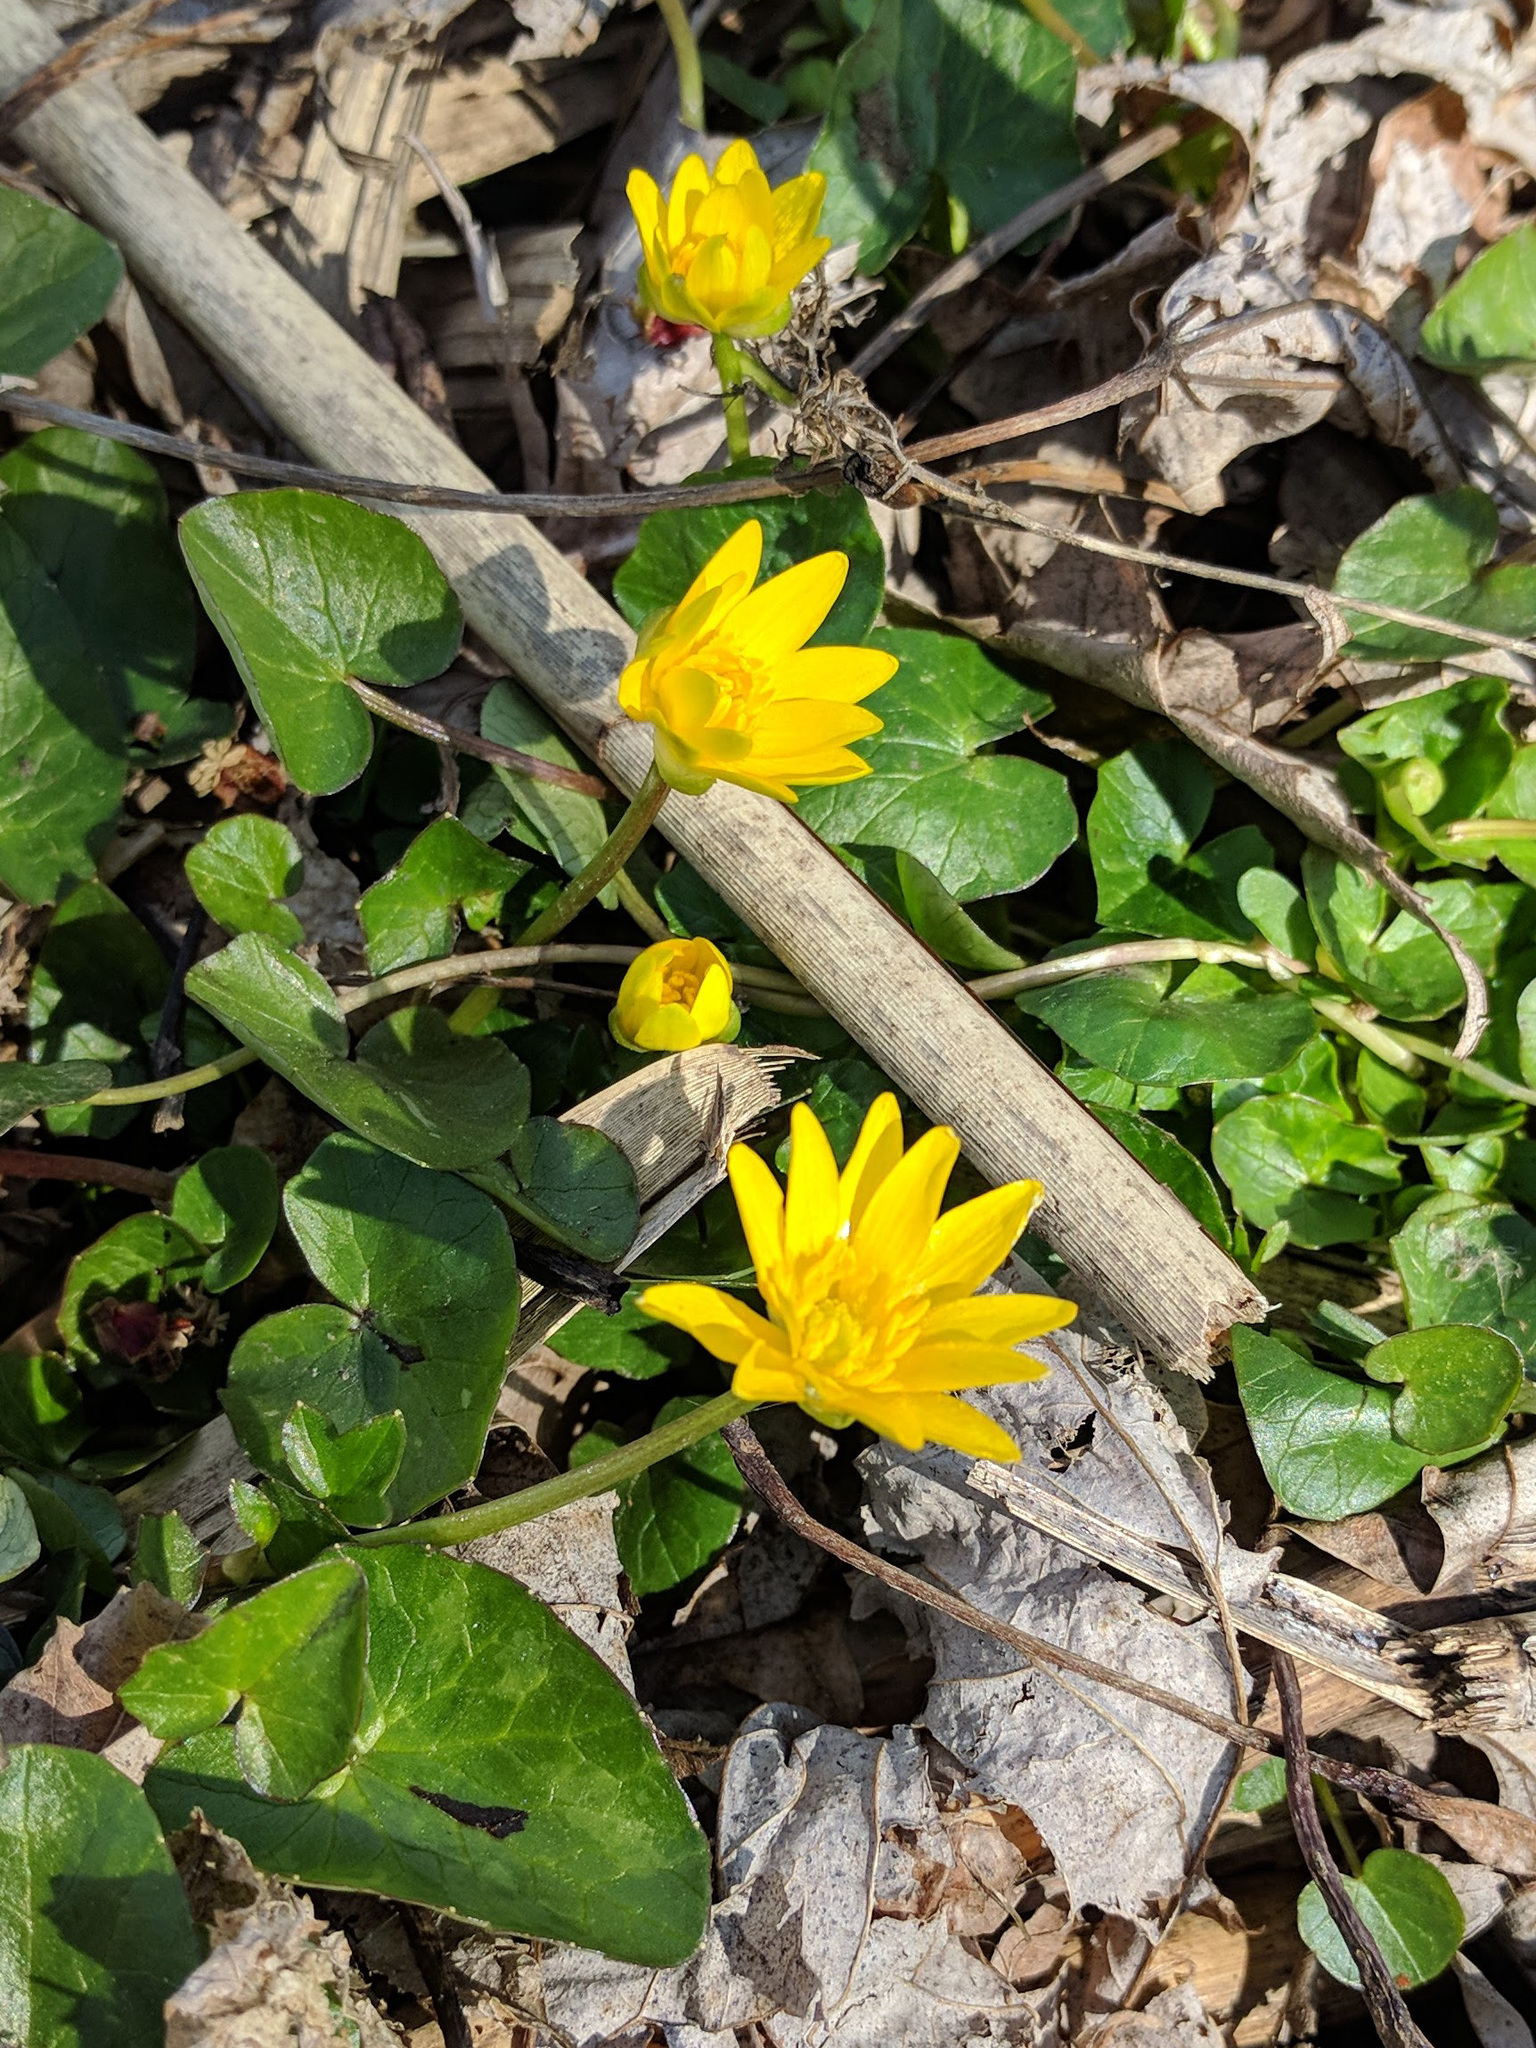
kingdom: Plantae
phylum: Tracheophyta
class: Magnoliopsida
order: Ranunculales
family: Ranunculaceae
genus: Ficaria
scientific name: Ficaria verna
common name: Lesser celandine
